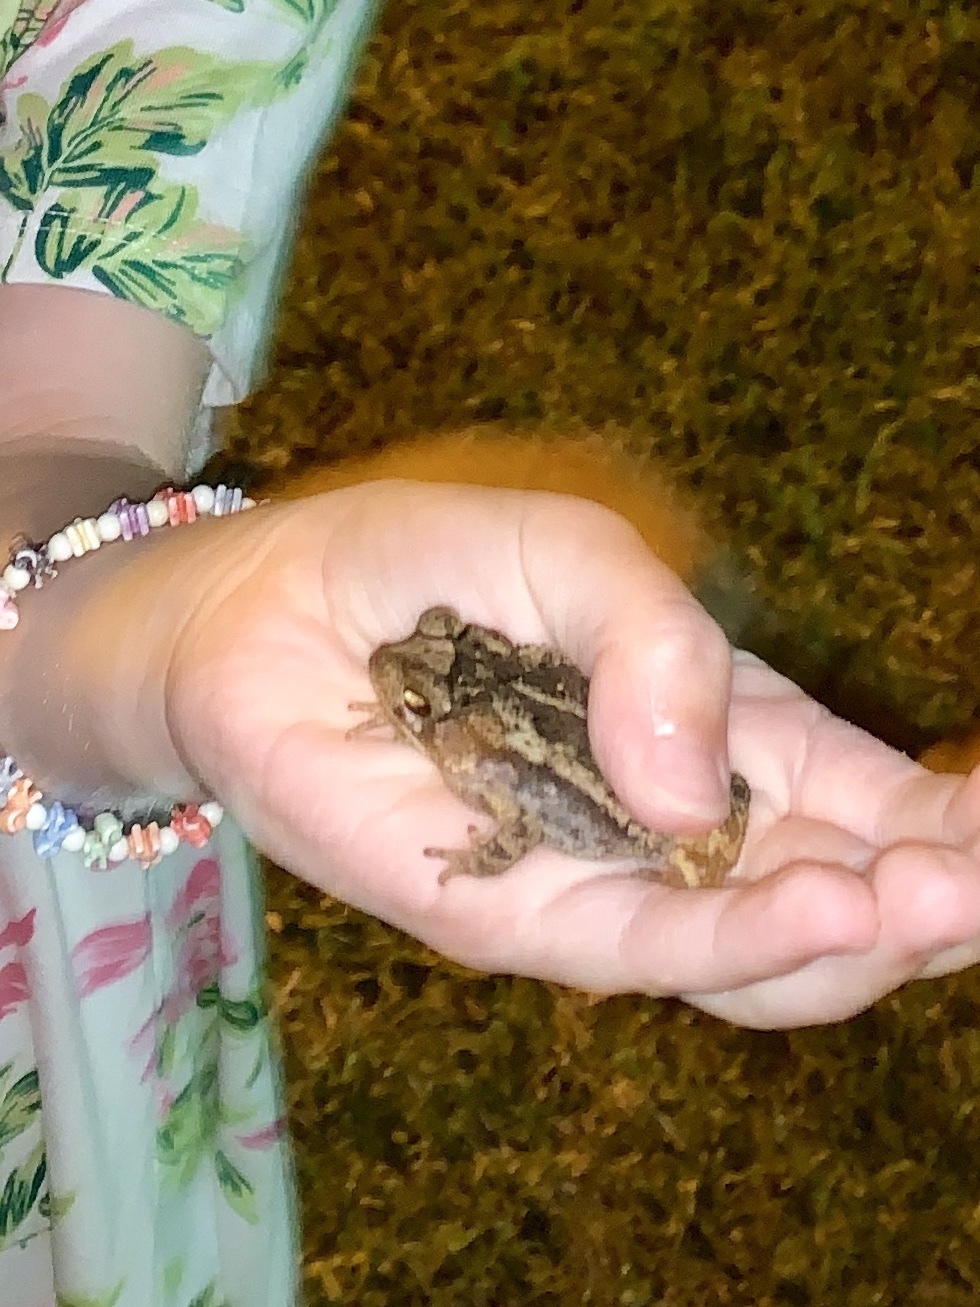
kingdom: Animalia
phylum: Chordata
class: Amphibia
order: Anura
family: Bufonidae
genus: Incilius
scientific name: Incilius nebulifer
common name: Gulf coast toad
